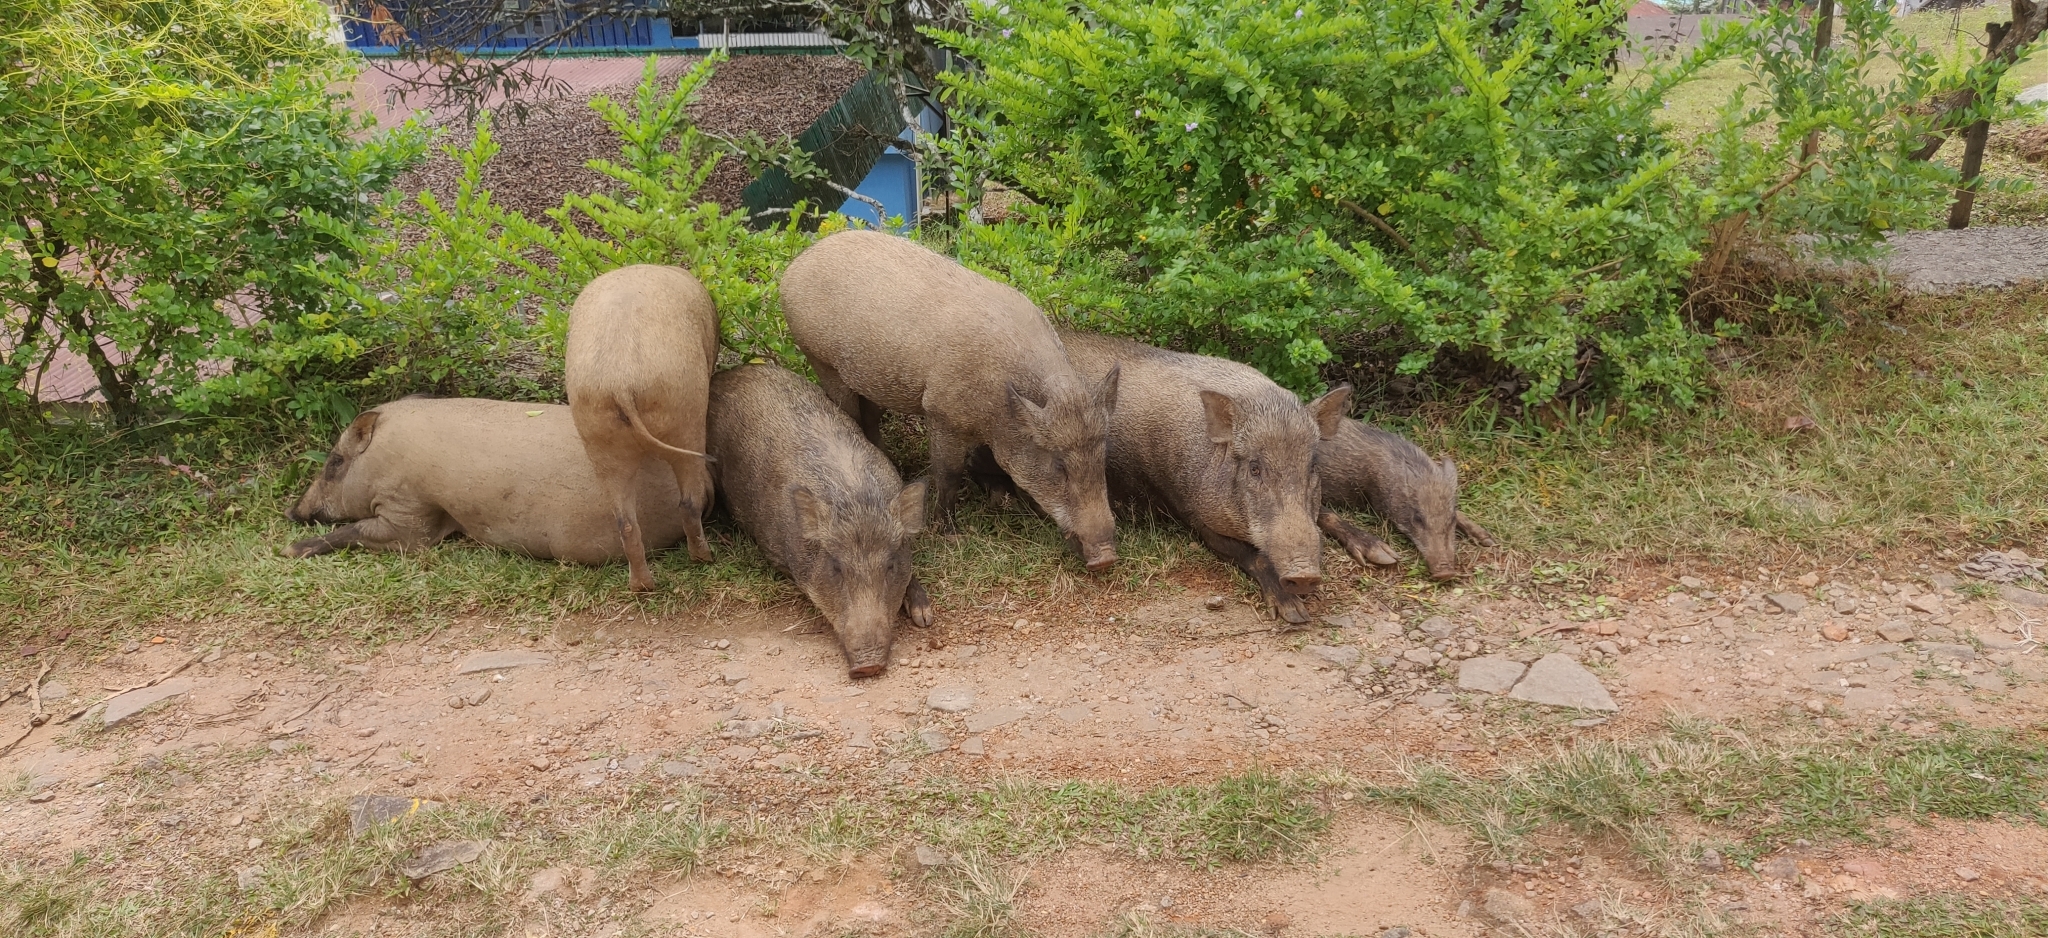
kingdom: Animalia
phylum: Chordata
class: Mammalia
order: Artiodactyla
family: Suidae
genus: Sus
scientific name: Sus scrofa
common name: Wild boar
